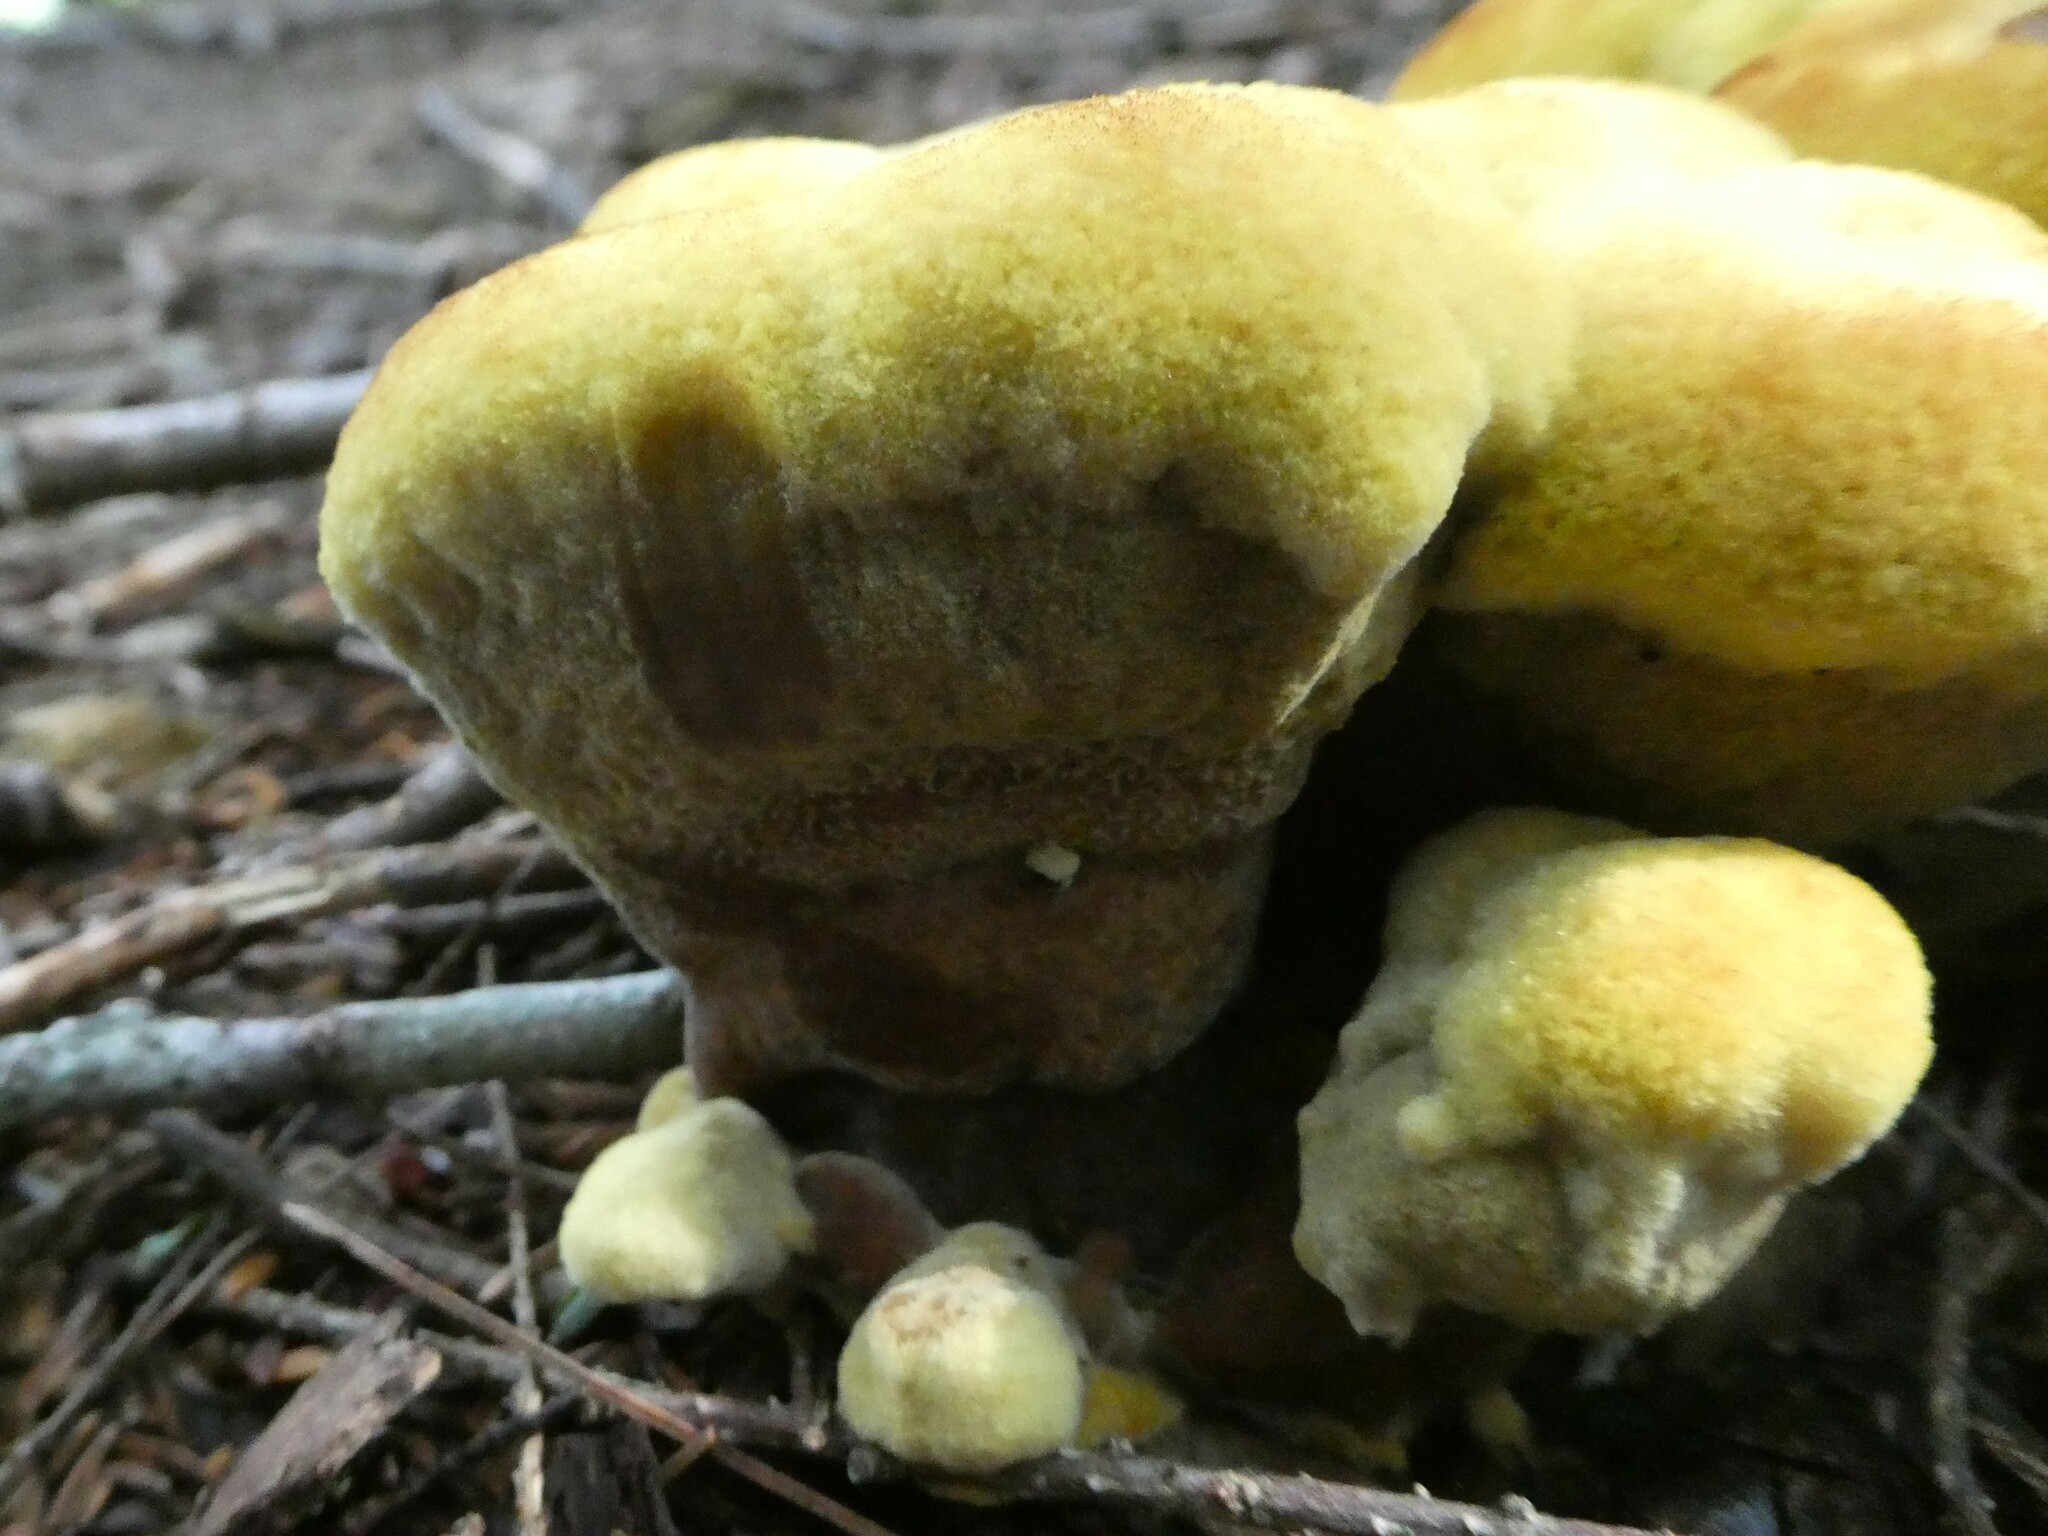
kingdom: Fungi
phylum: Basidiomycota
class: Agaricomycetes
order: Polyporales
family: Laetiporaceae
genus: Phaeolus
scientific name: Phaeolus schweinitzii
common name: Dyer's mazegill
